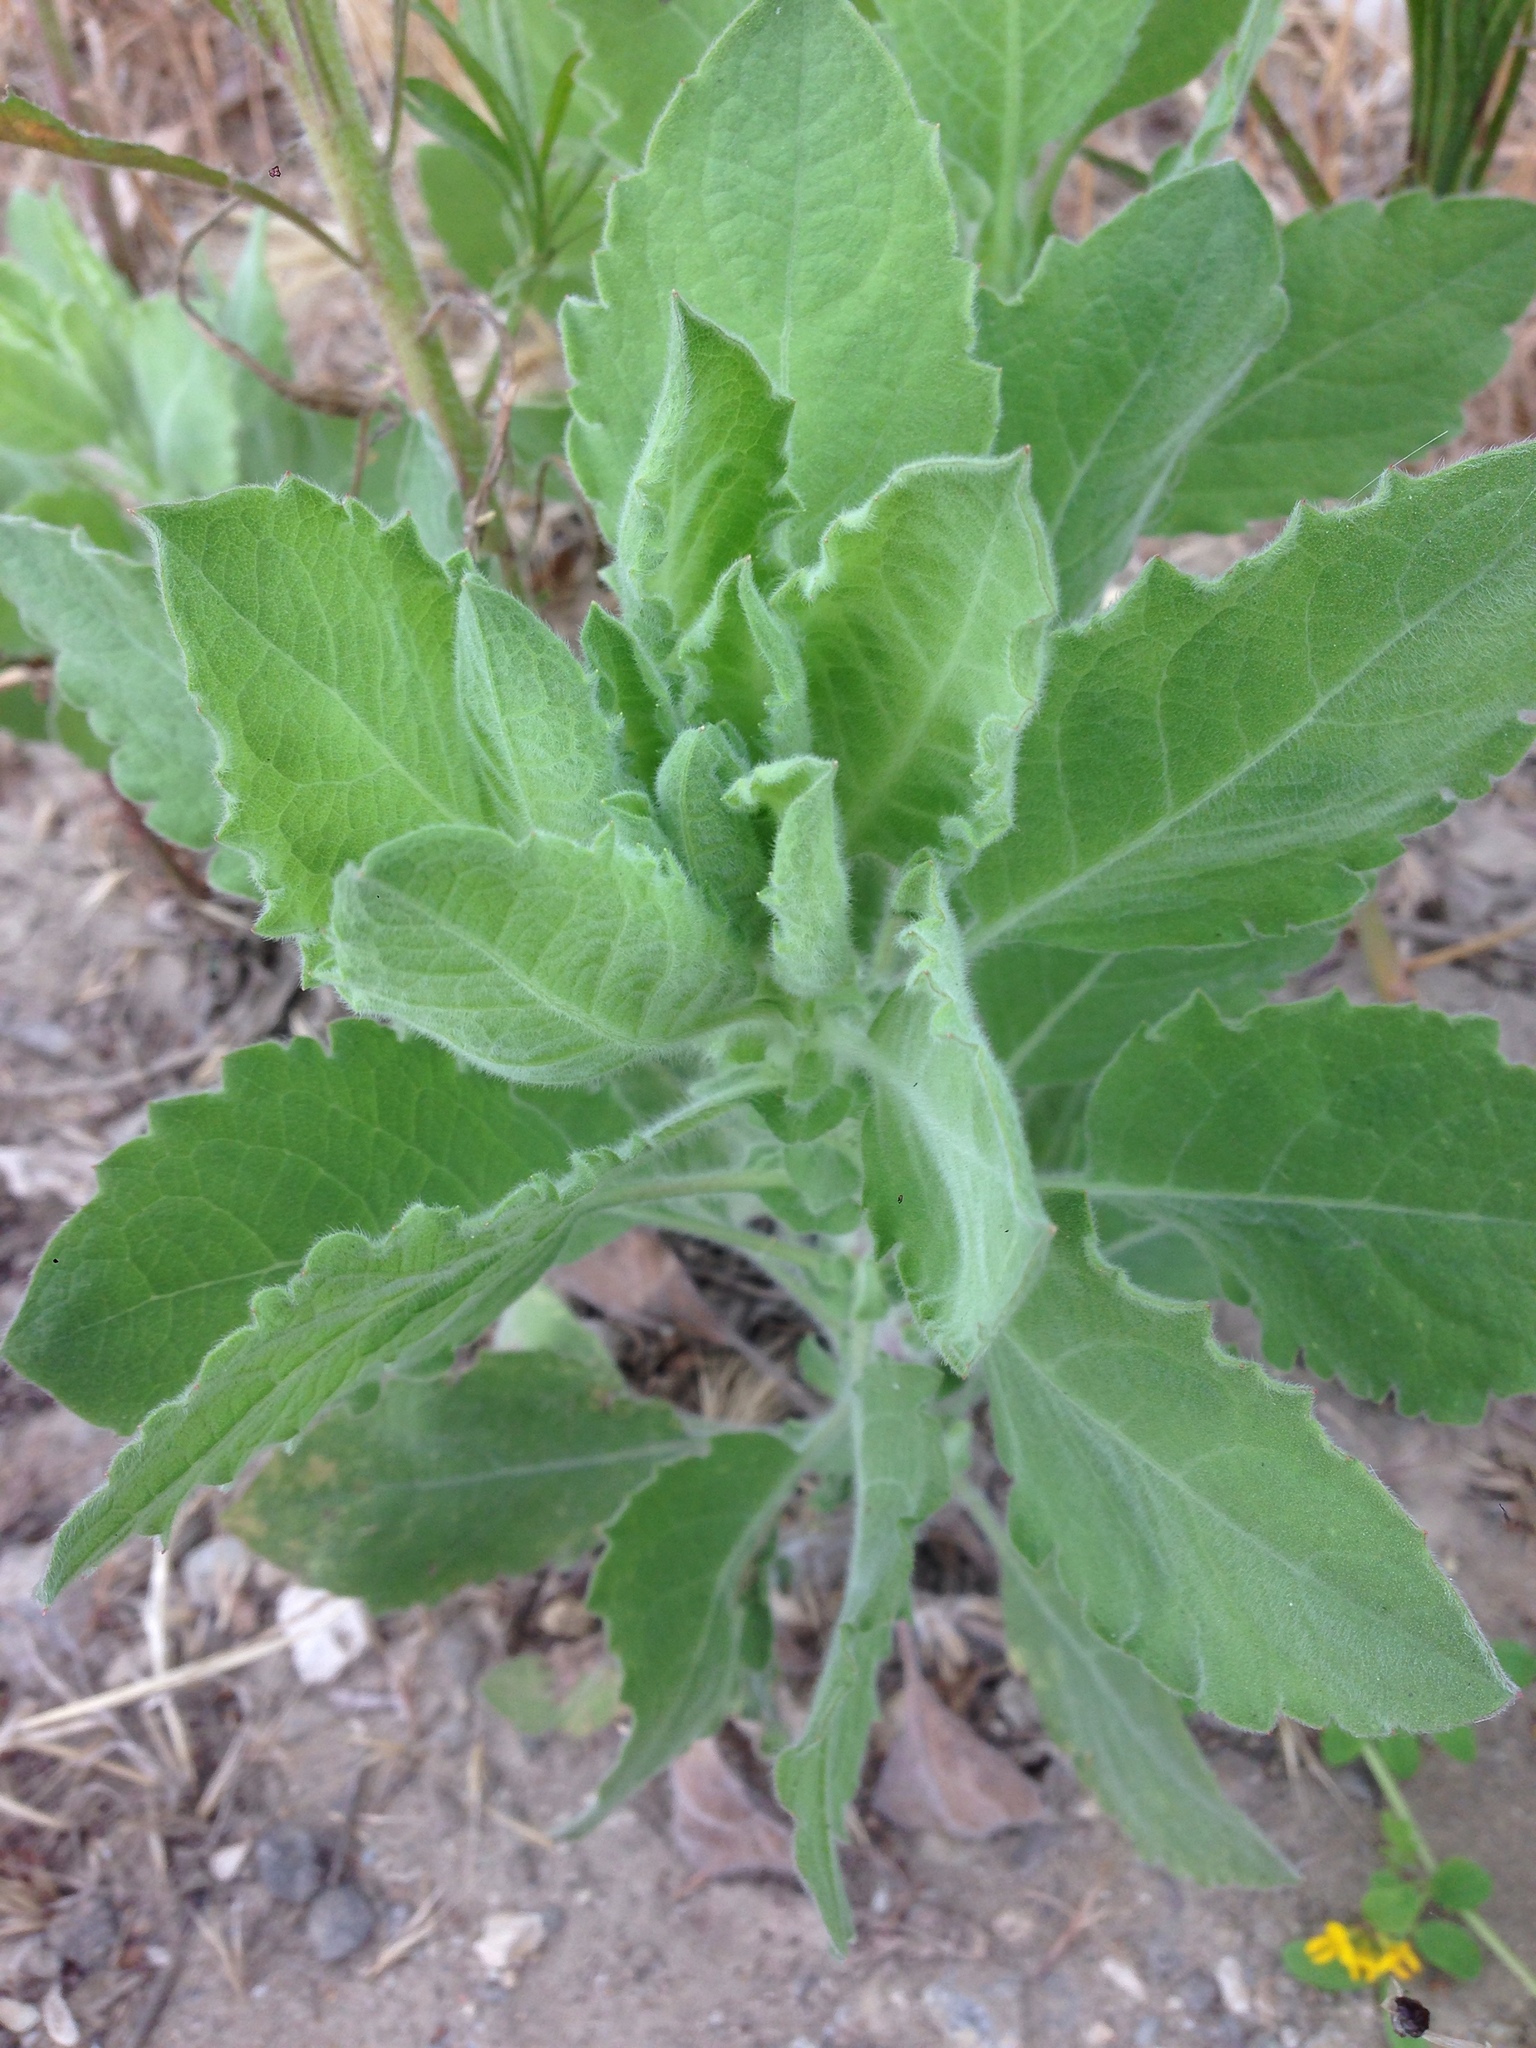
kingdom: Plantae
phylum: Tracheophyta
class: Magnoliopsida
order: Asterales
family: Asteraceae
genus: Heterotheca
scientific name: Heterotheca grandiflora
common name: Telegraphweed
